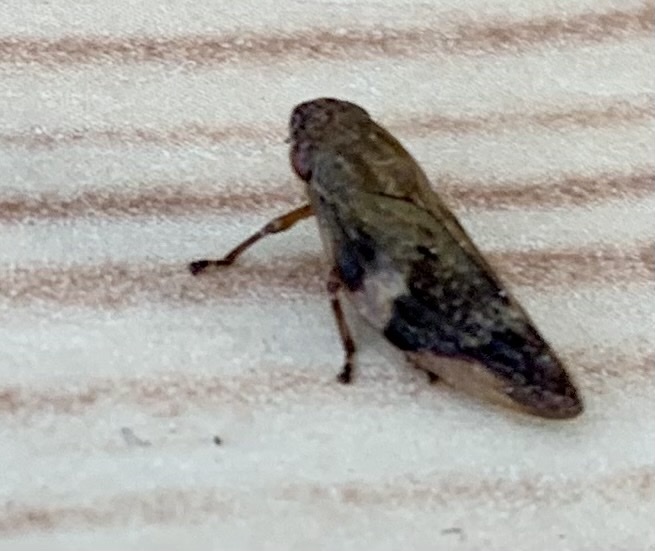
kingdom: Animalia
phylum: Arthropoda
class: Insecta
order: Hemiptera
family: Aphrophoridae
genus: Aphrophora
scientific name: Aphrophora alni
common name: European alder spittlebug
